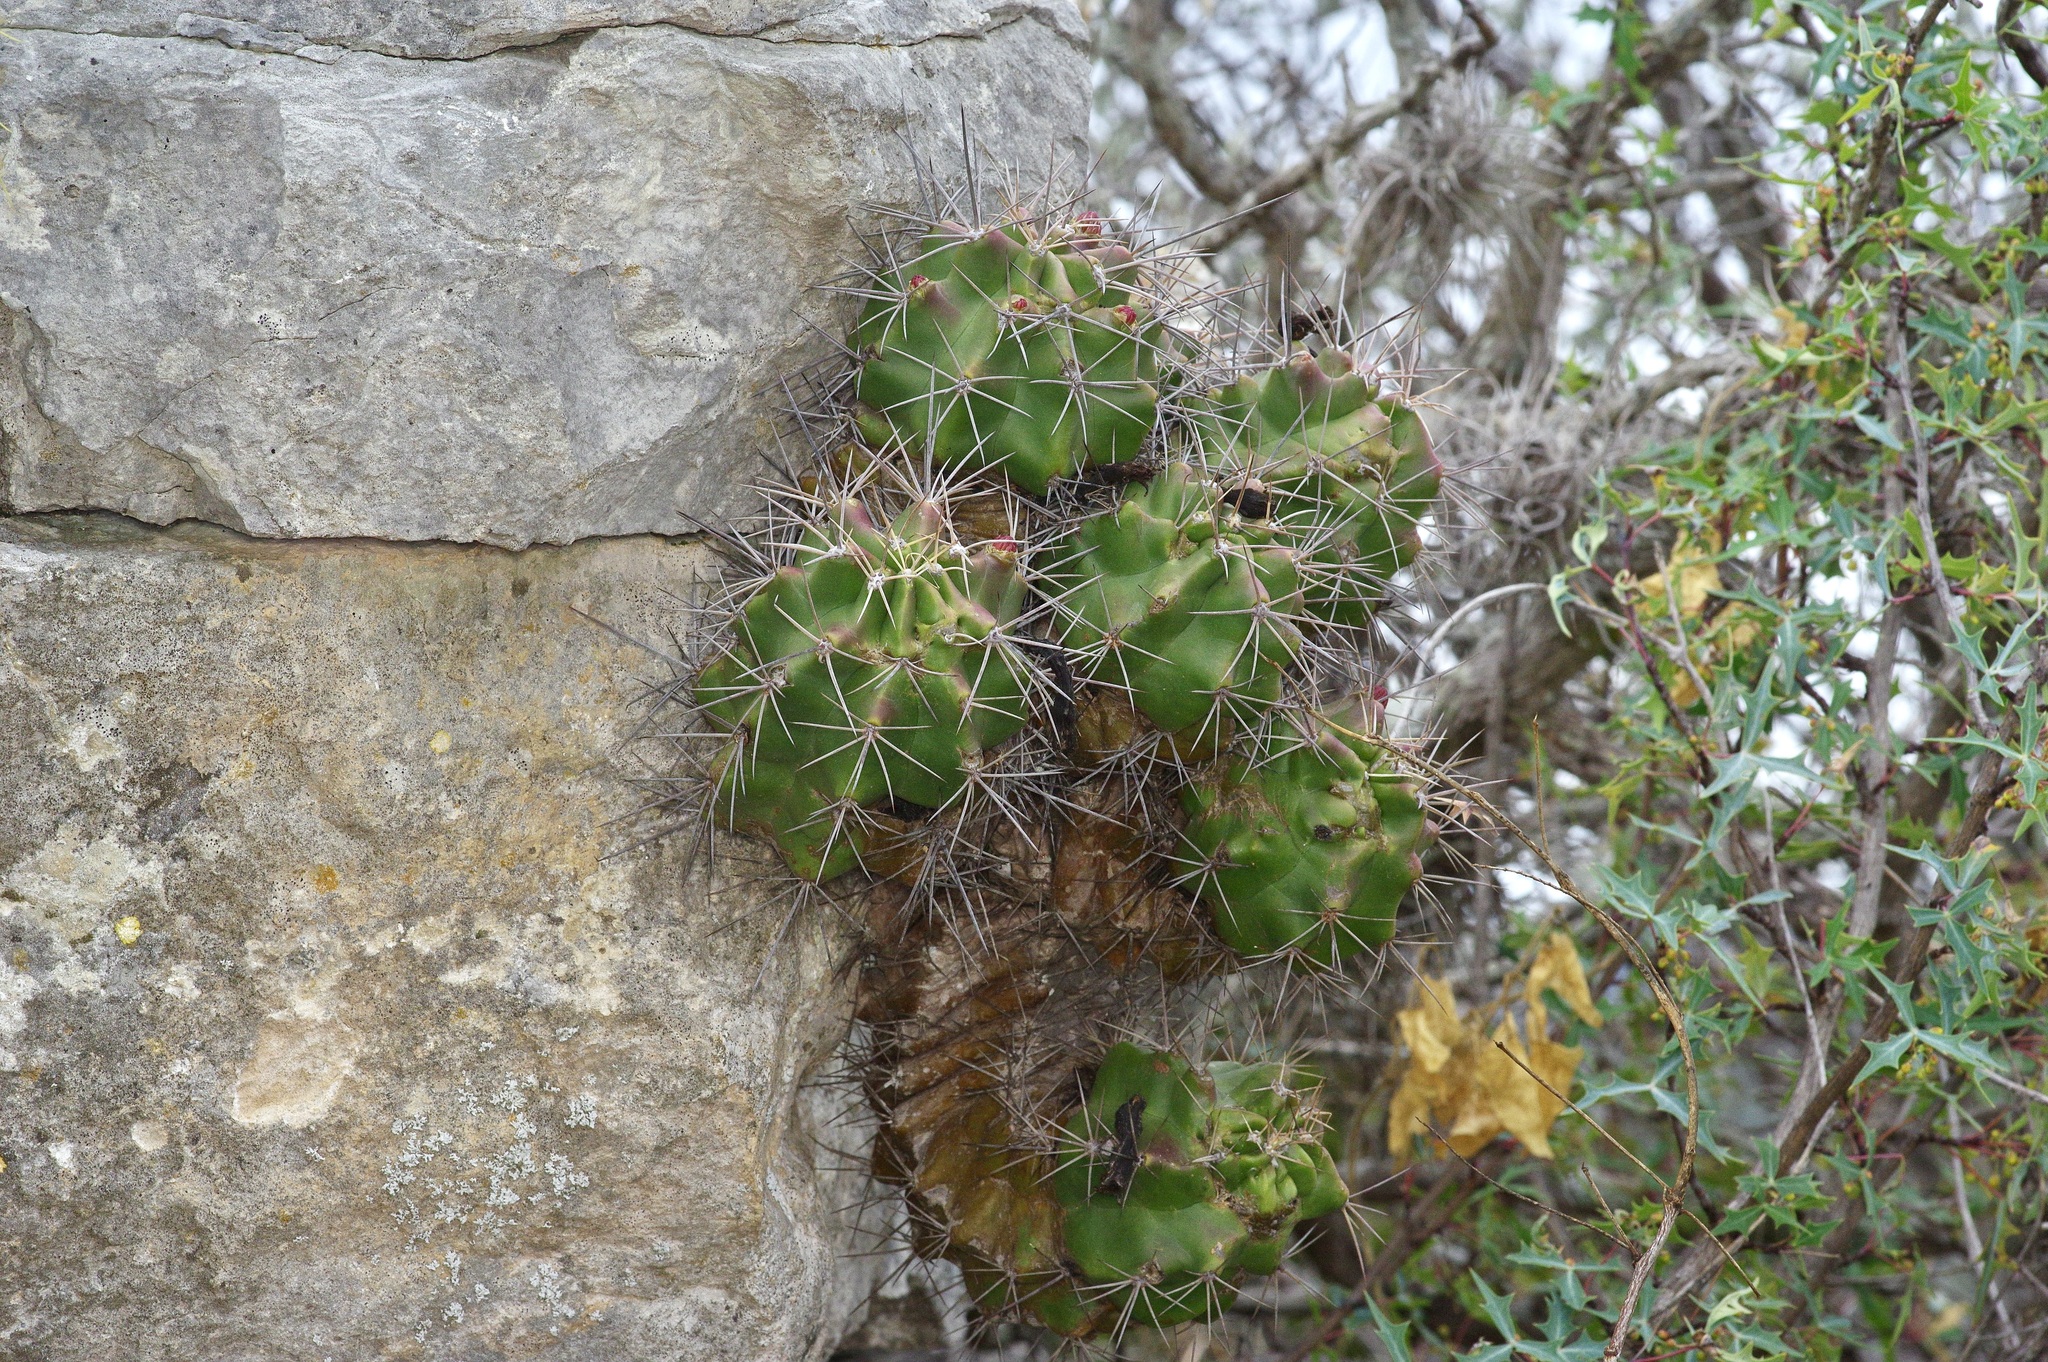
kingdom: Plantae
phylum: Tracheophyta
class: Magnoliopsida
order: Caryophyllales
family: Cactaceae
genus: Echinocereus
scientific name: Echinocereus coccineus
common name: Scarlet hedgehog cactus
